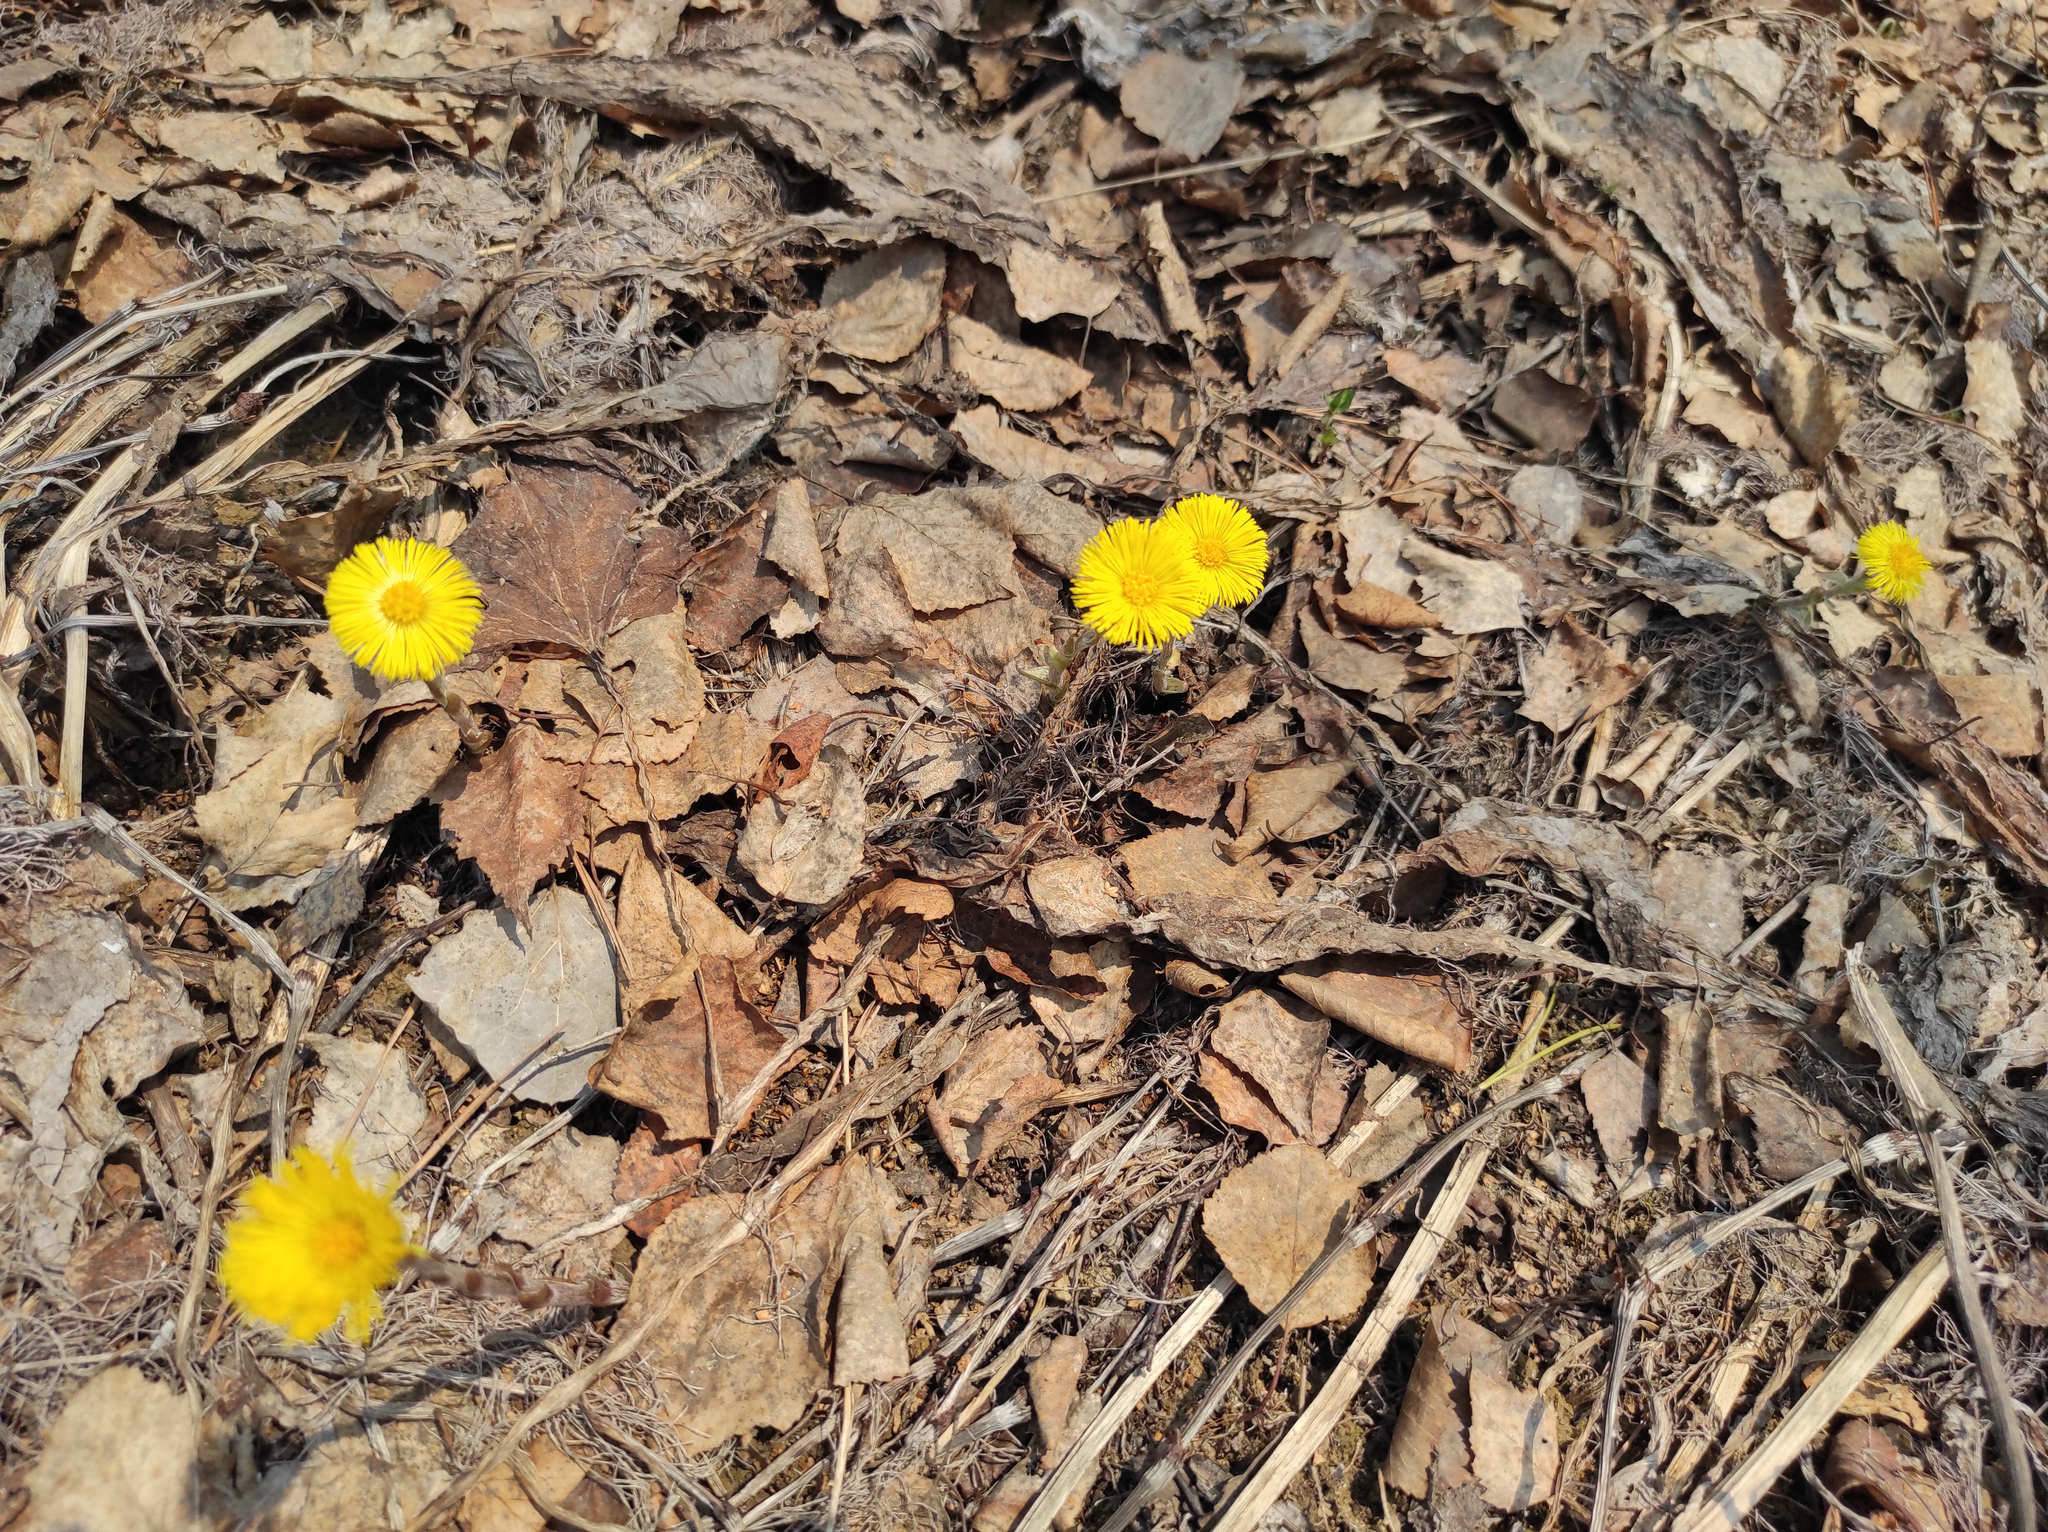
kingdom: Plantae
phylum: Tracheophyta
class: Magnoliopsida
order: Asterales
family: Asteraceae
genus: Tussilago
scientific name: Tussilago farfara
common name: Coltsfoot
